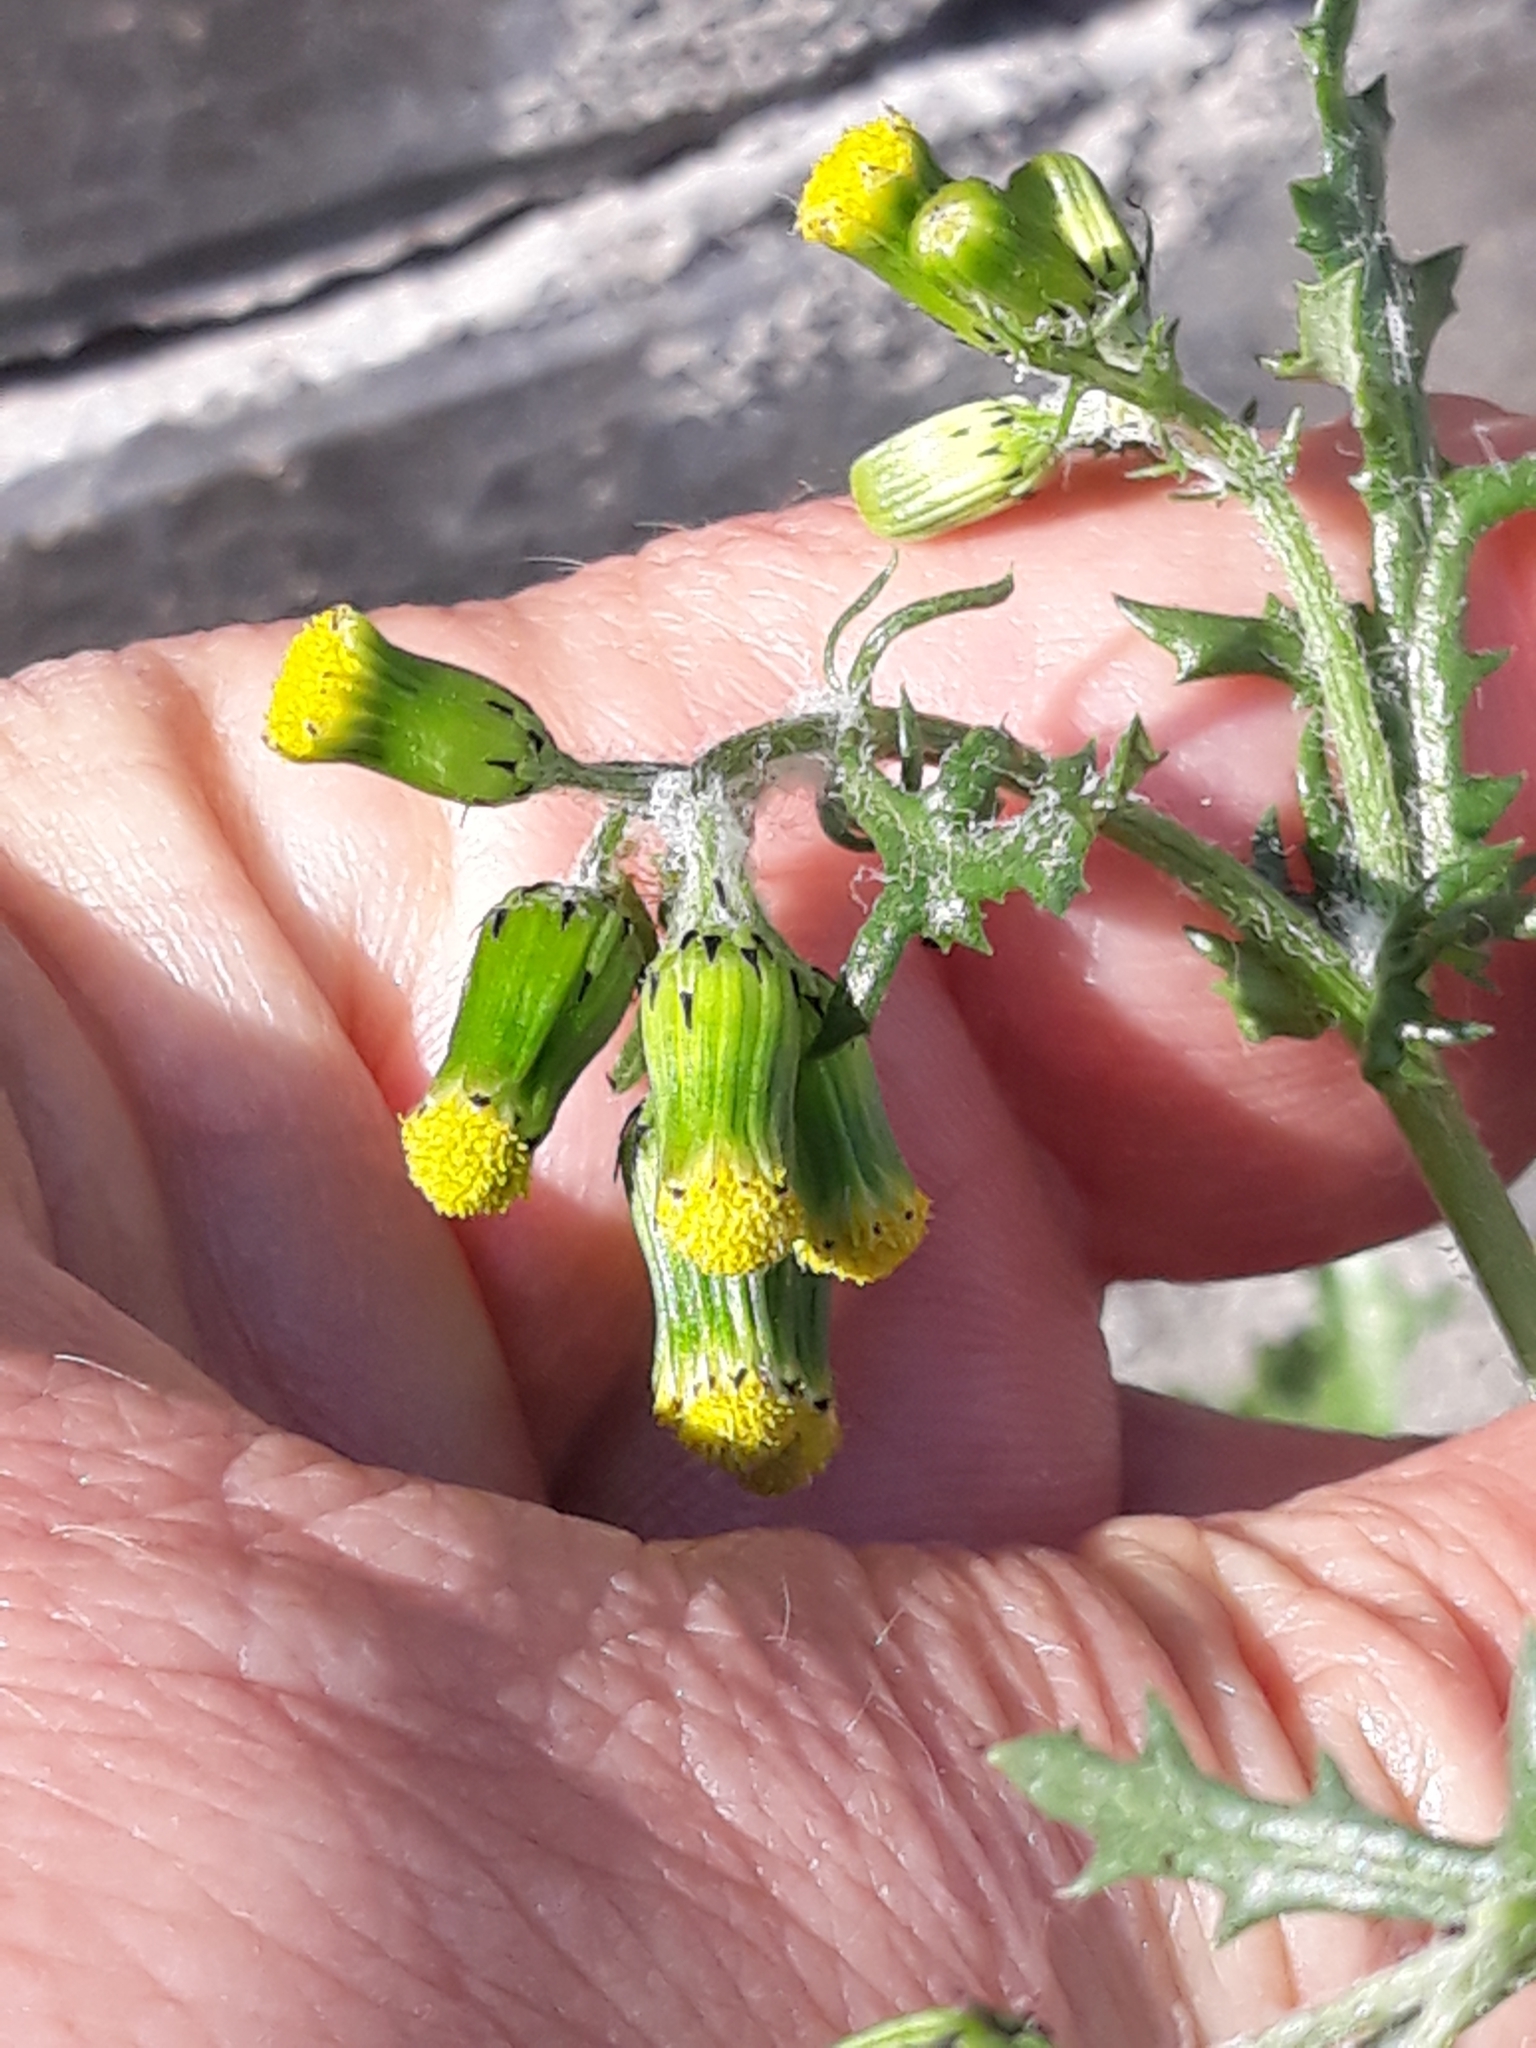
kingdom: Plantae
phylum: Tracheophyta
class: Magnoliopsida
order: Asterales
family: Asteraceae
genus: Senecio
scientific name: Senecio vulgaris
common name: Old-man-in-the-spring
